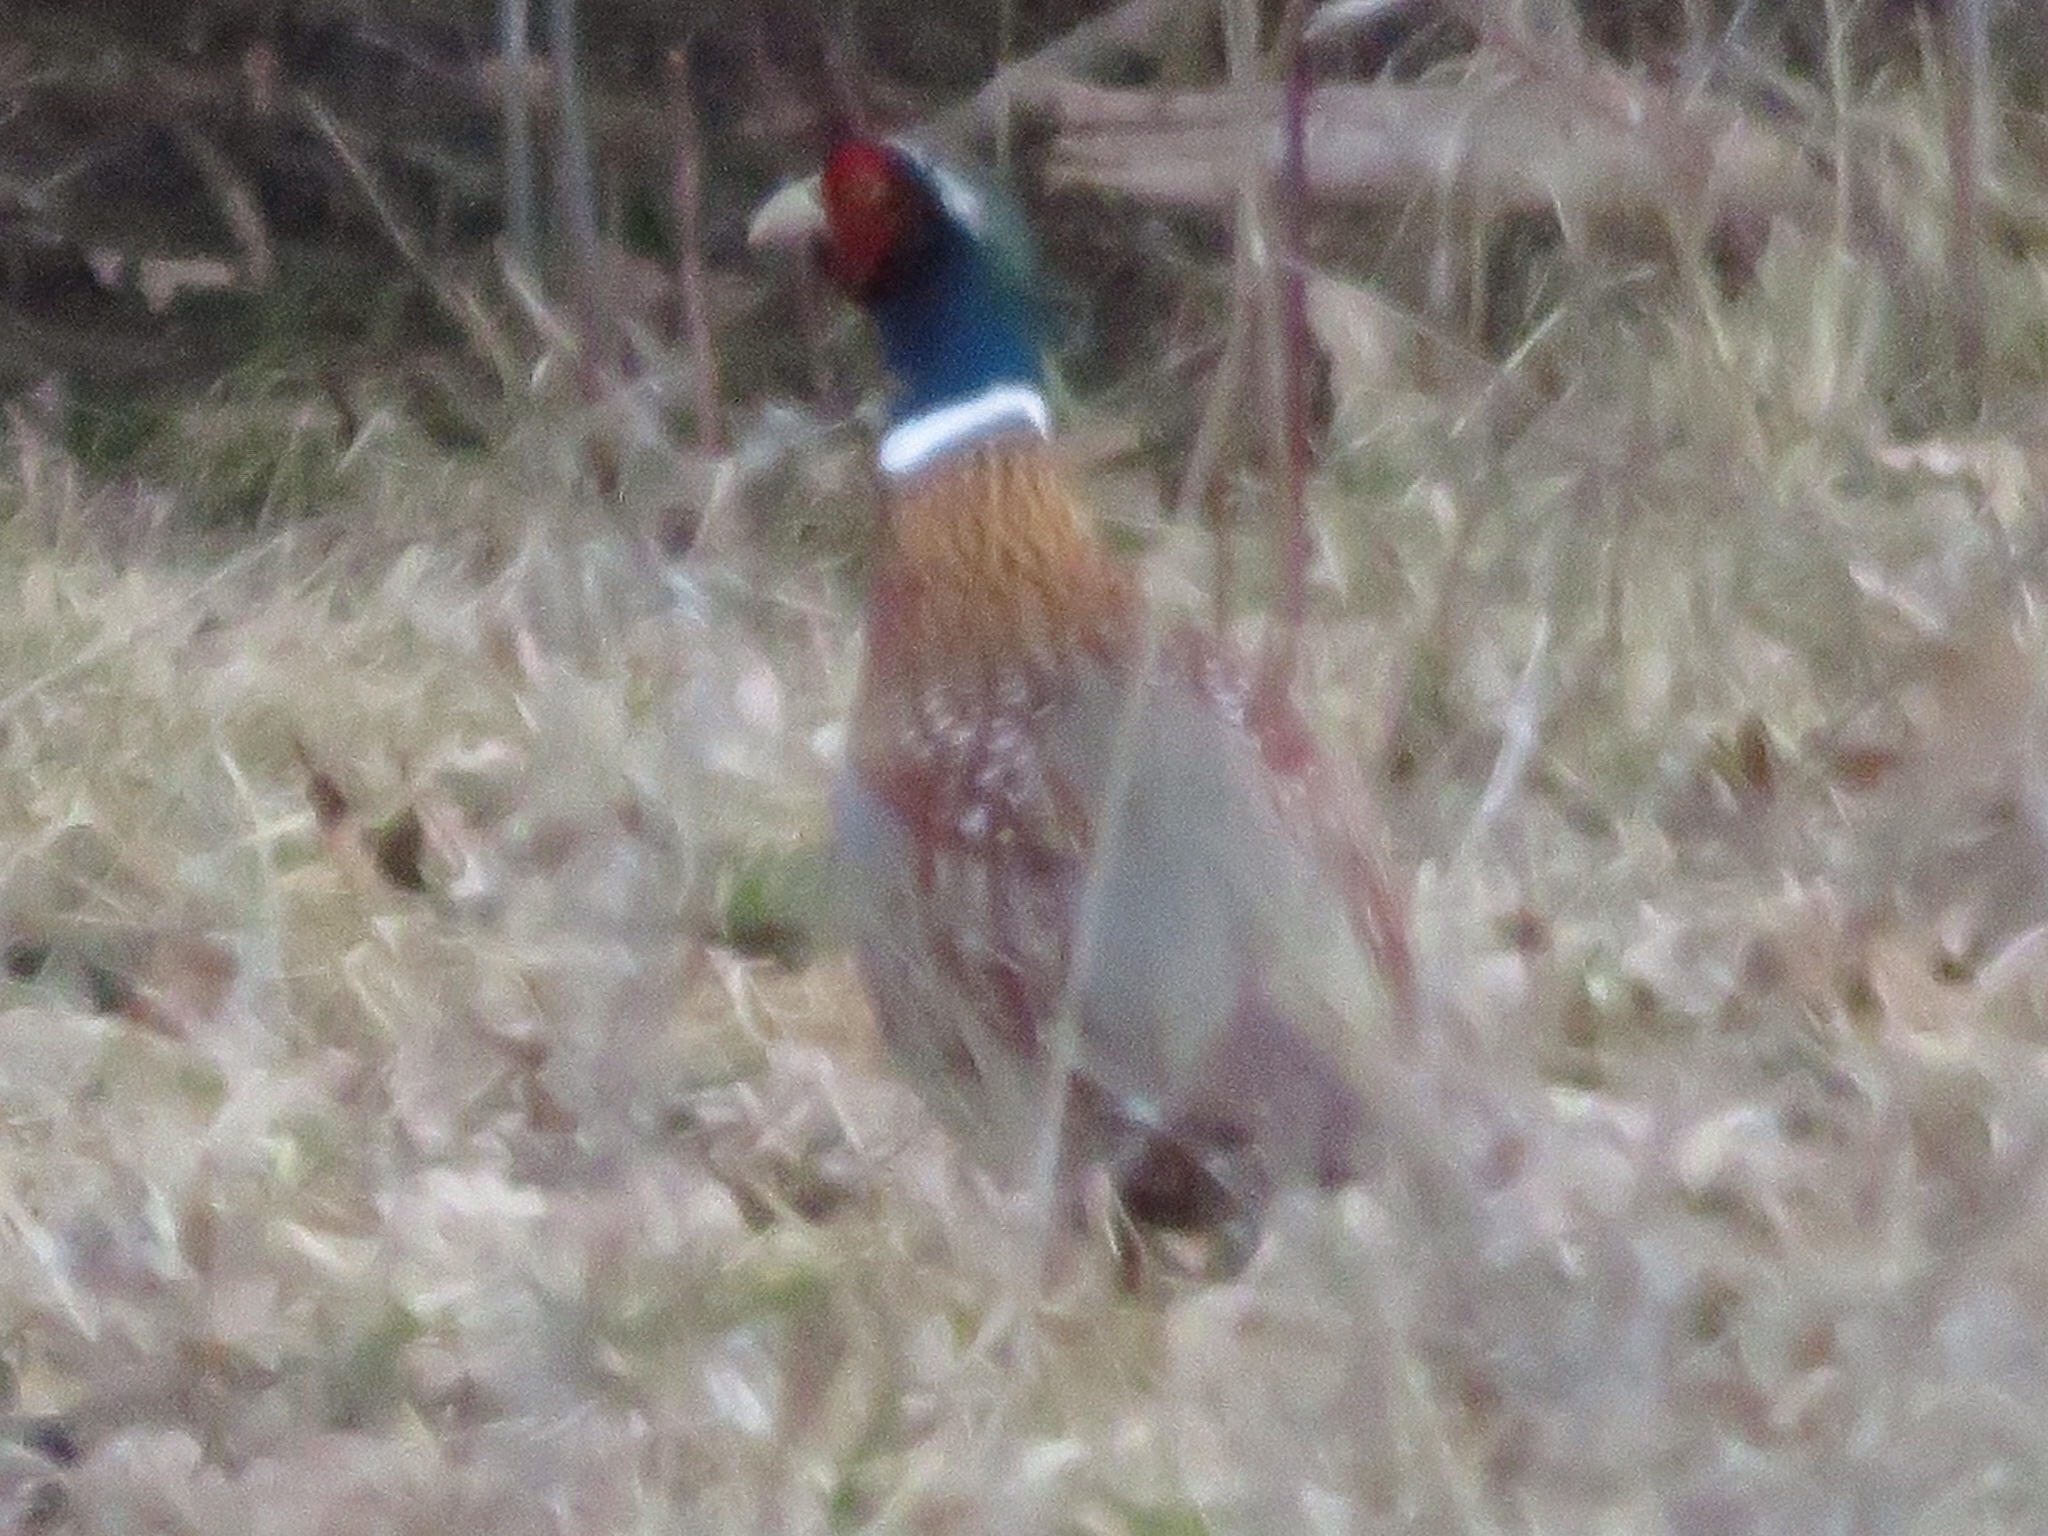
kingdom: Animalia
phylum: Chordata
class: Aves
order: Galliformes
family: Phasianidae
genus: Phasianus
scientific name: Phasianus colchicus
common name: Common pheasant
